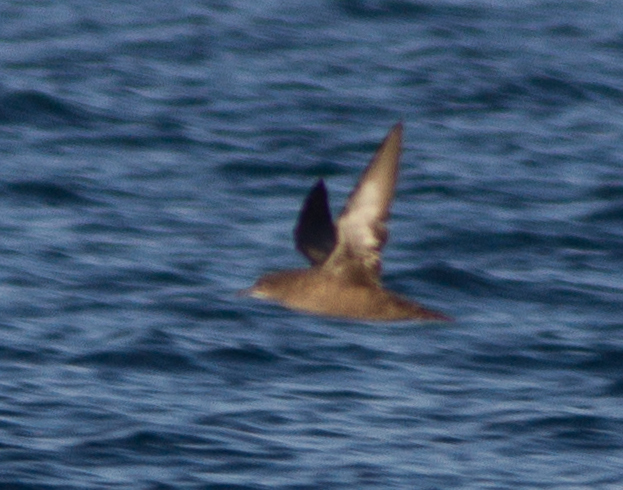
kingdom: Animalia
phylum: Chordata
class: Aves
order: Procellariiformes
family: Procellariidae
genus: Puffinus
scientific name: Puffinus griseus
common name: Sooty shearwater
